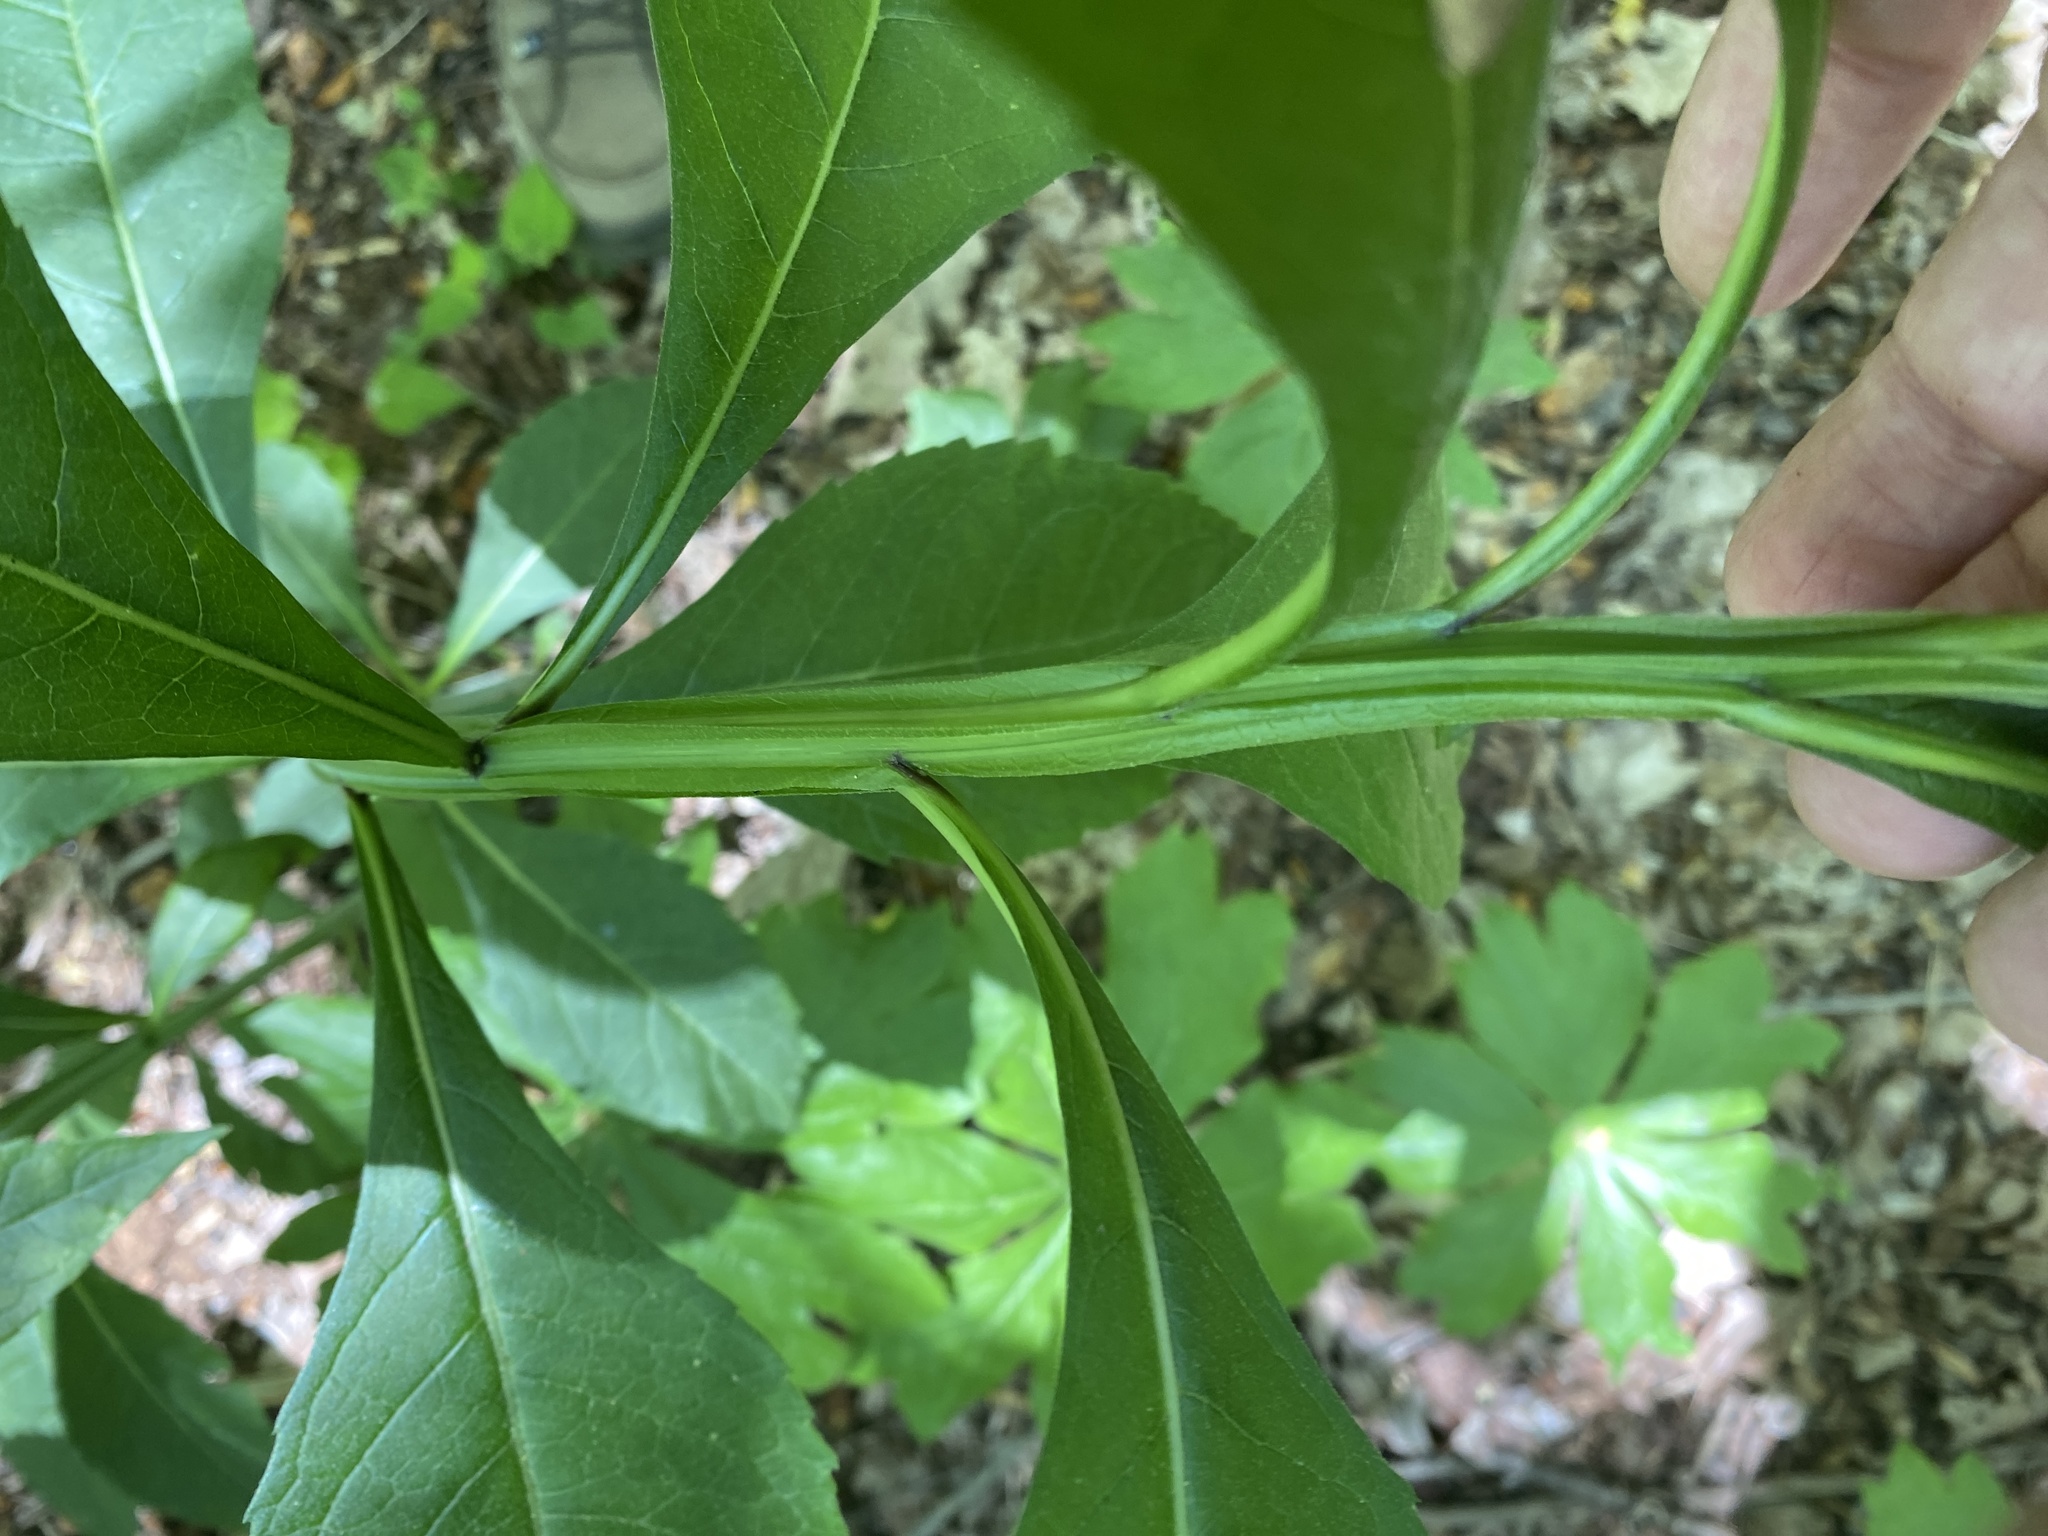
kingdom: Plantae
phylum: Tracheophyta
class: Magnoliopsida
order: Asterales
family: Asteraceae
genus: Verbesina
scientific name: Verbesina alternifolia
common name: Wingstem
